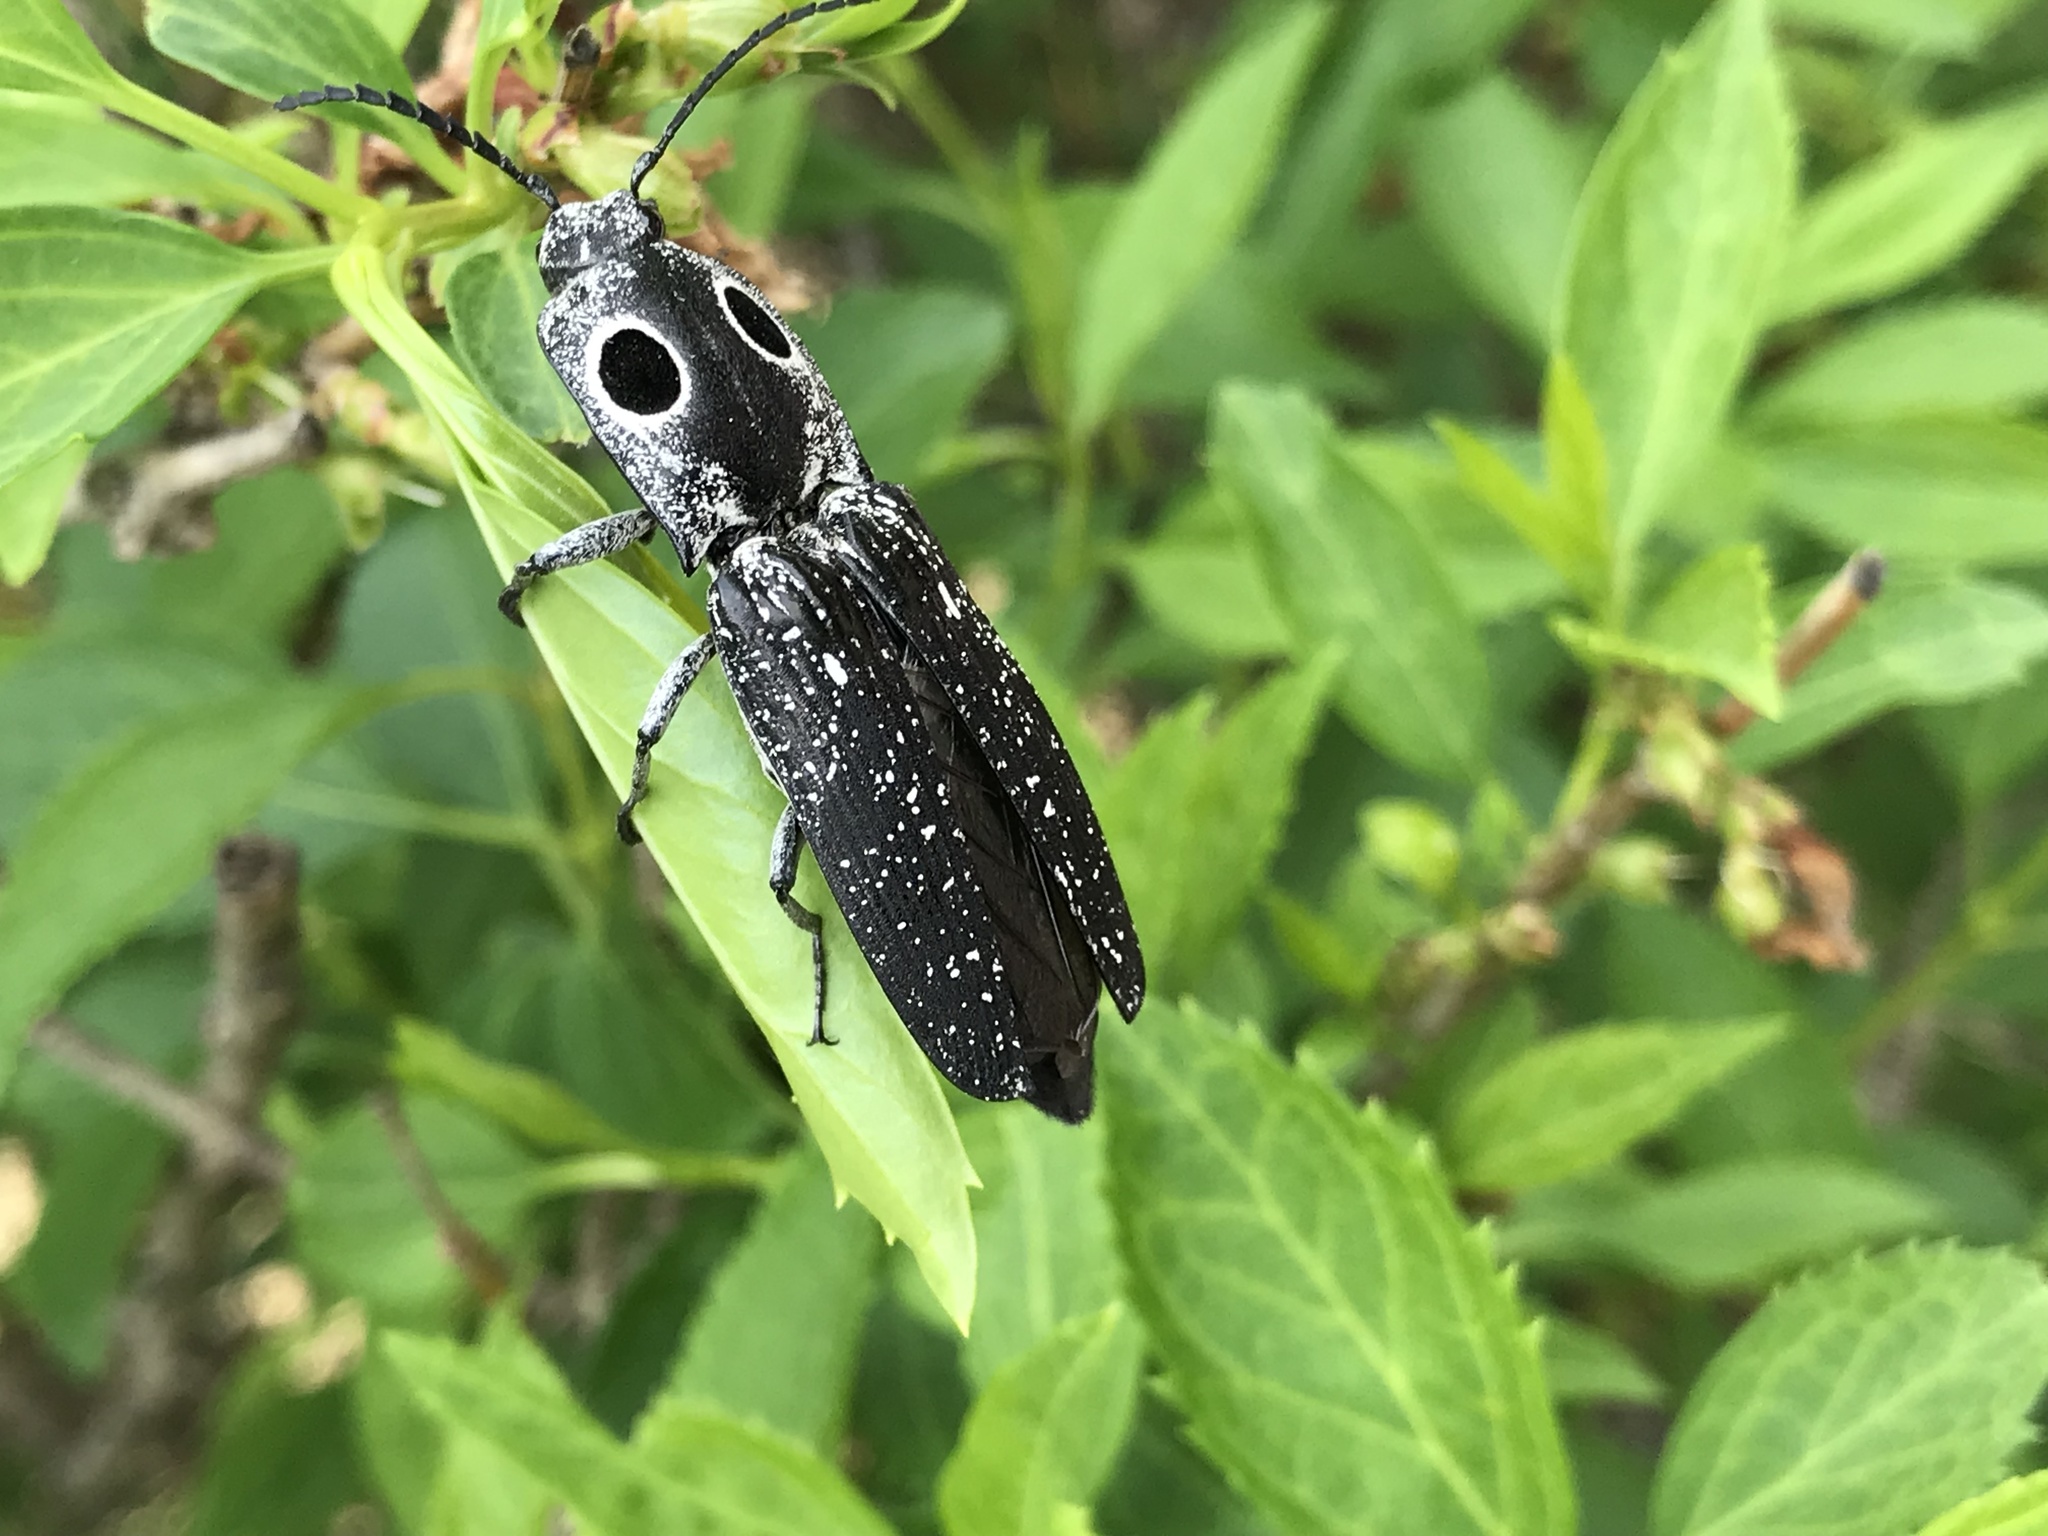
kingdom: Animalia
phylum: Arthropoda
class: Insecta
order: Coleoptera
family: Elateridae
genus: Alaus
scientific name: Alaus oculatus
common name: Eastern eyed click beetle
